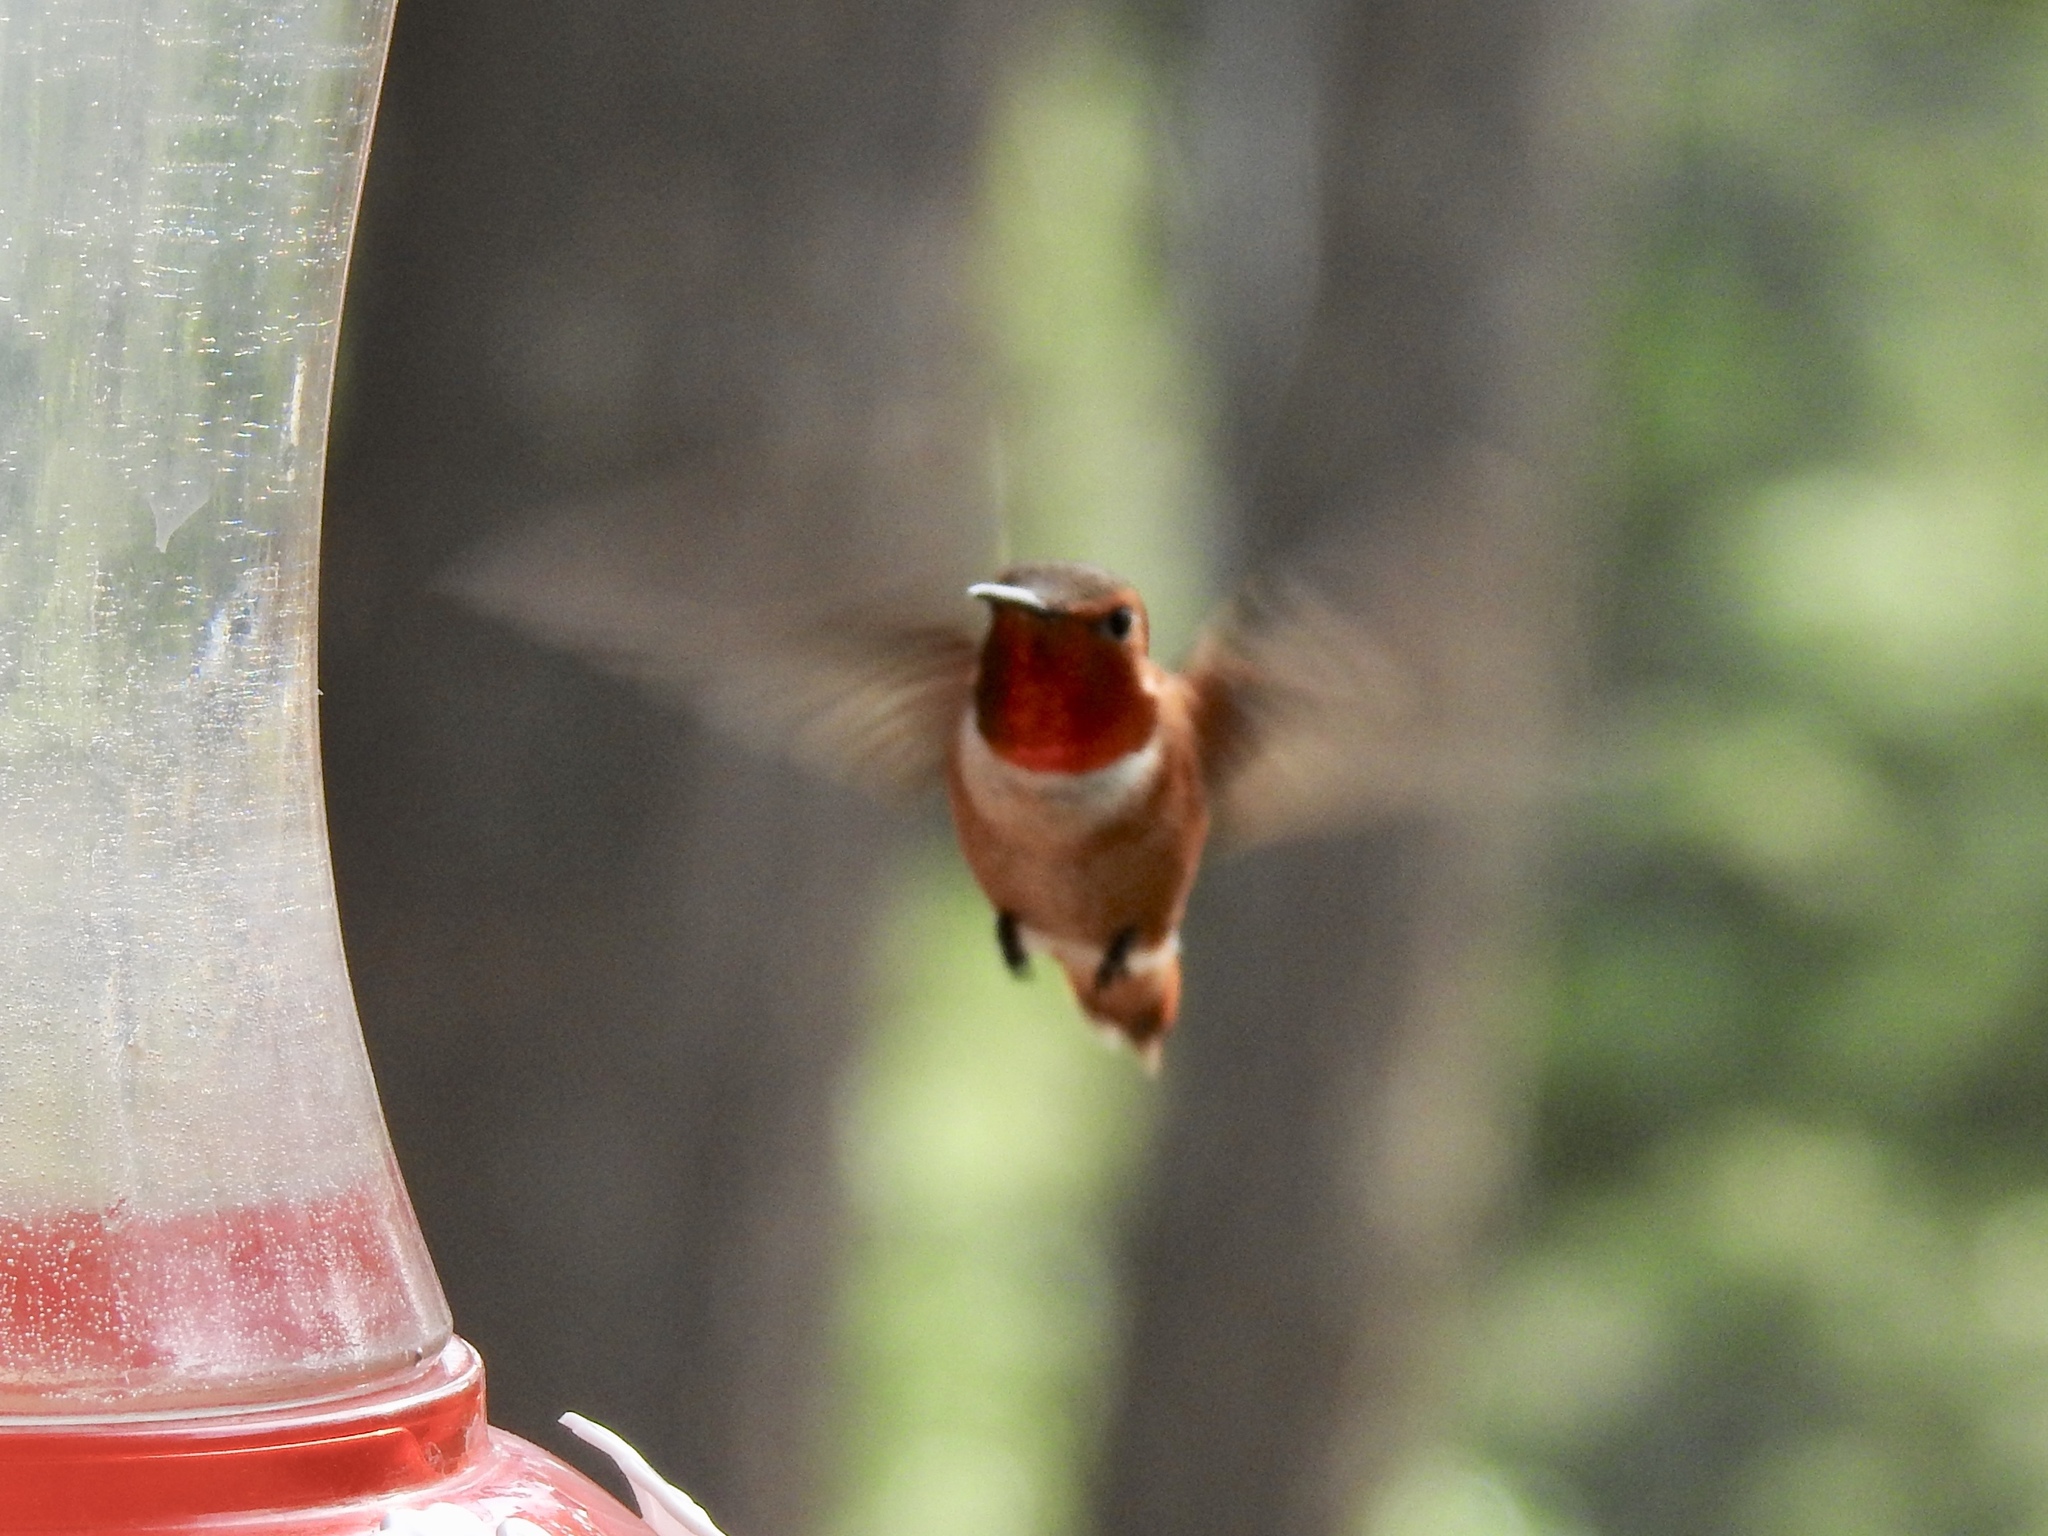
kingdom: Animalia
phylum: Chordata
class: Aves
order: Apodiformes
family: Trochilidae
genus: Selasphorus
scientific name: Selasphorus rufus
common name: Rufous hummingbird
